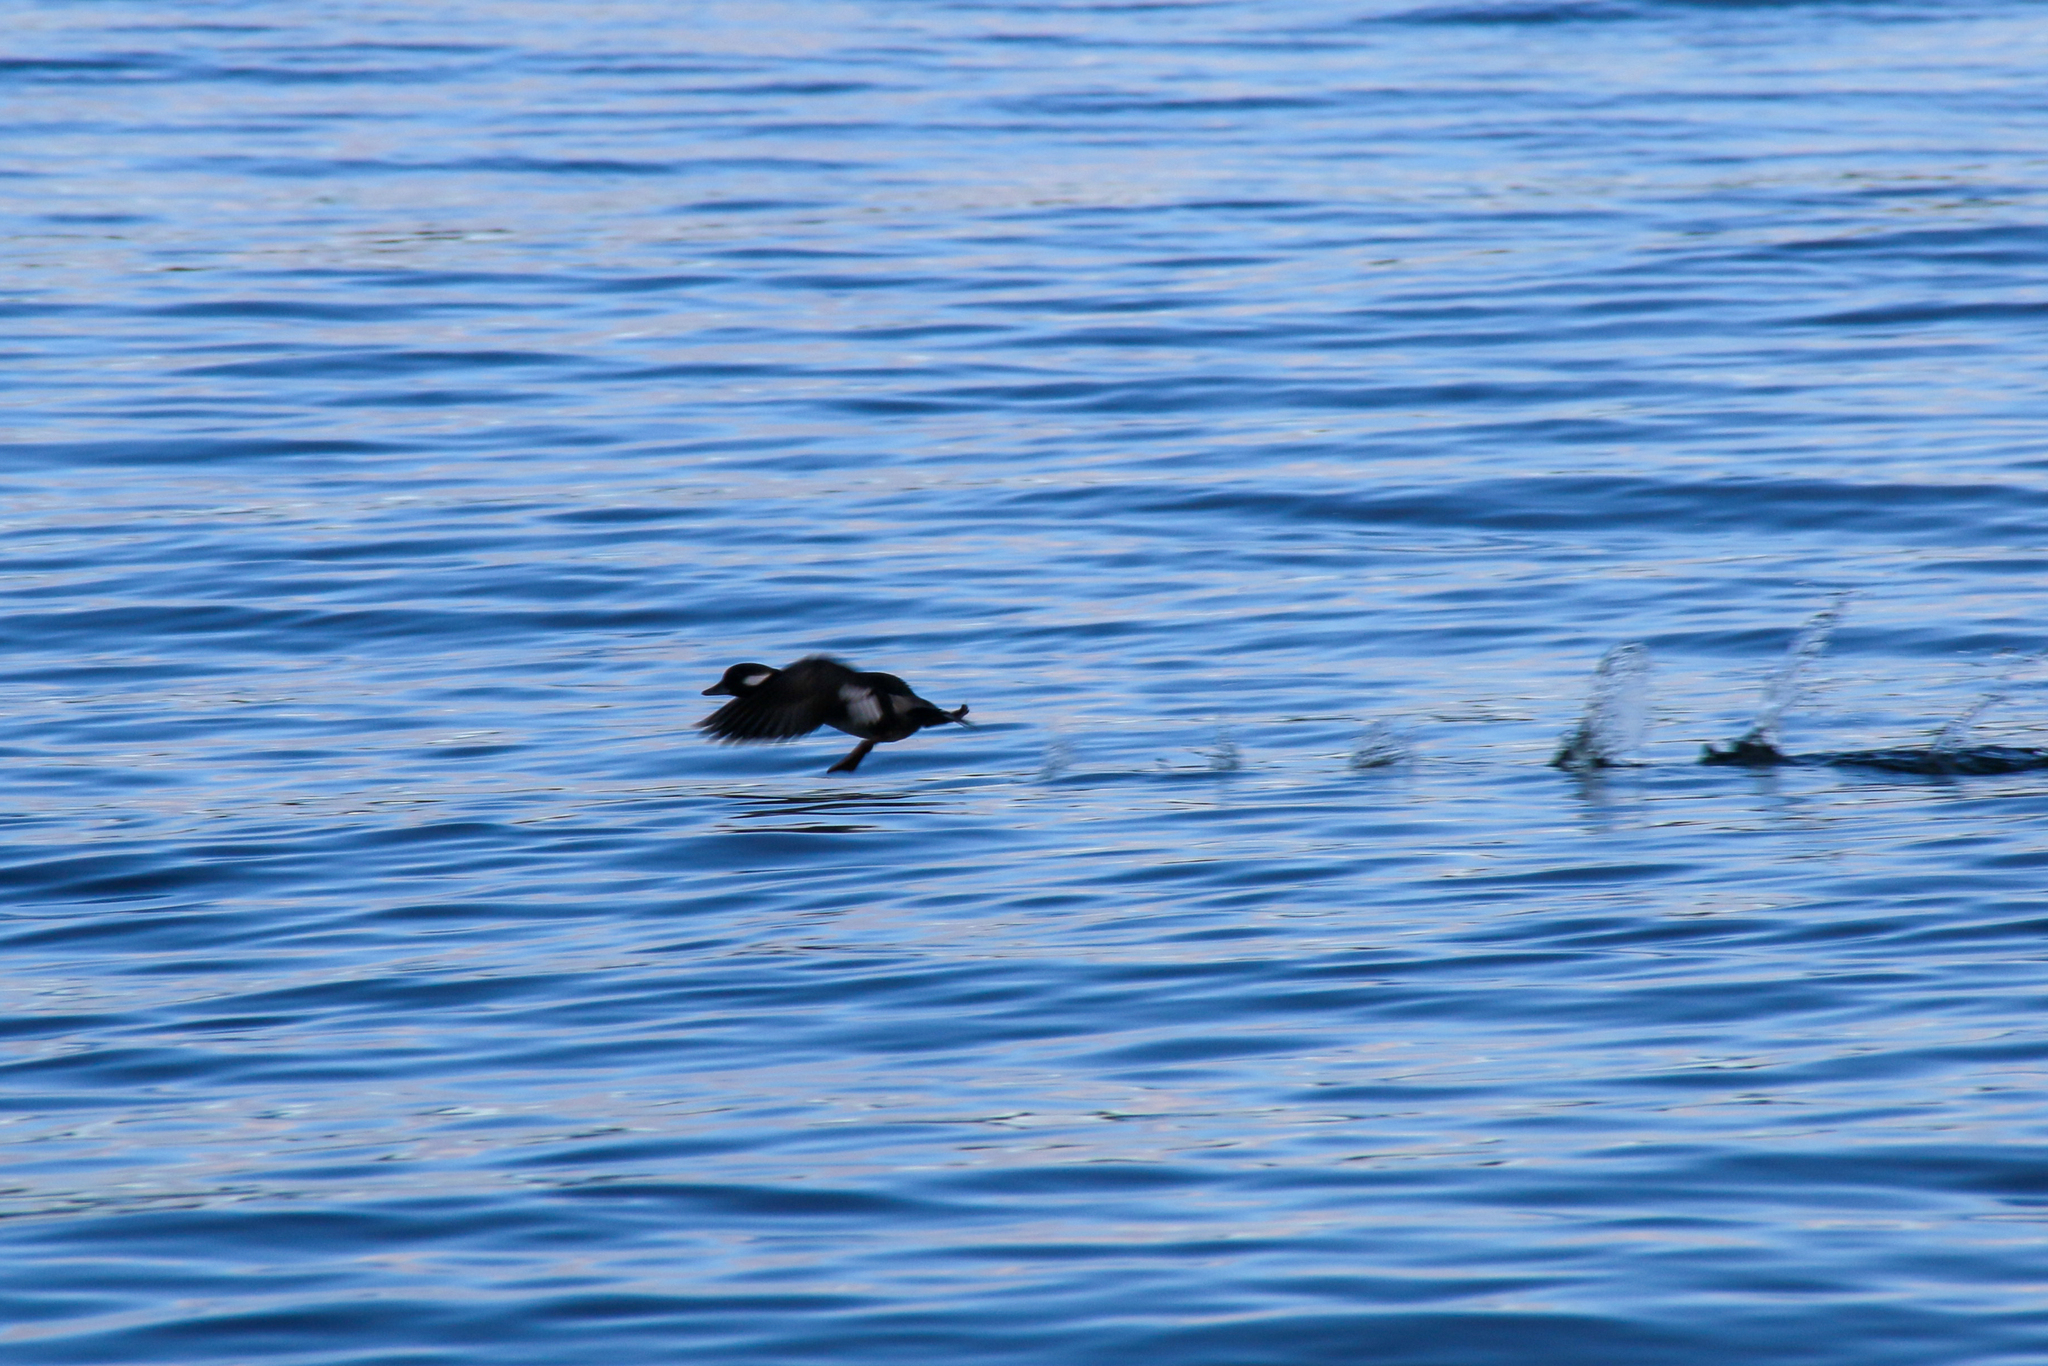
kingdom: Animalia
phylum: Chordata
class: Aves
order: Anseriformes
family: Anatidae
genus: Bucephala
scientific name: Bucephala albeola
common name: Bufflehead
